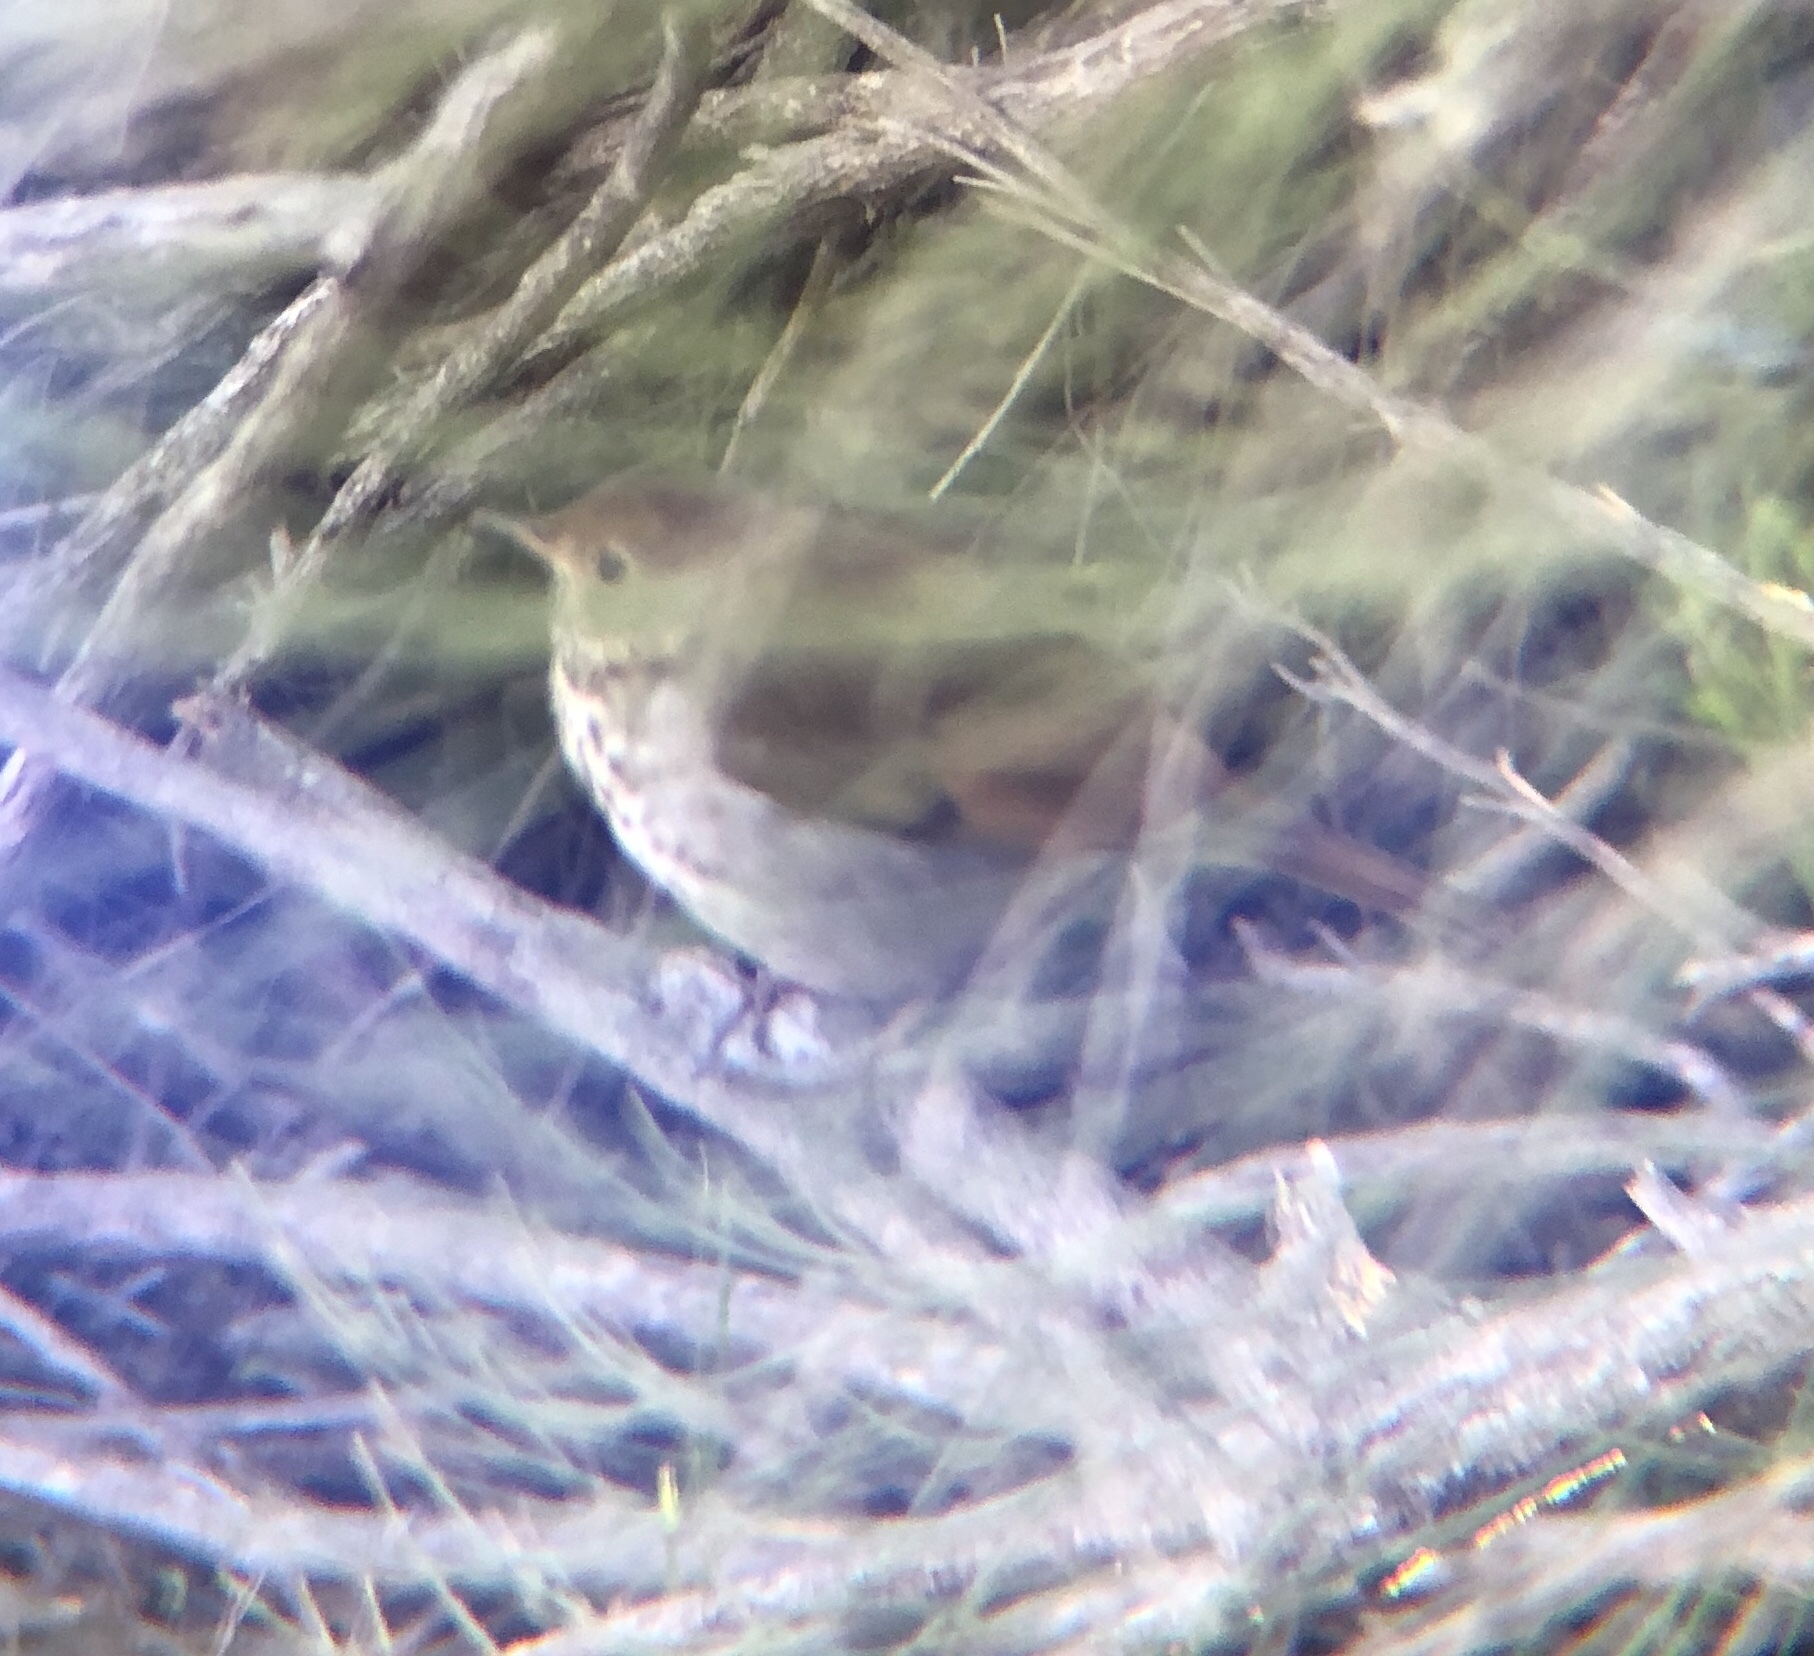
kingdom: Animalia
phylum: Chordata
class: Aves
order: Passeriformes
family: Turdidae
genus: Catharus
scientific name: Catharus guttatus
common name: Hermit thrush
